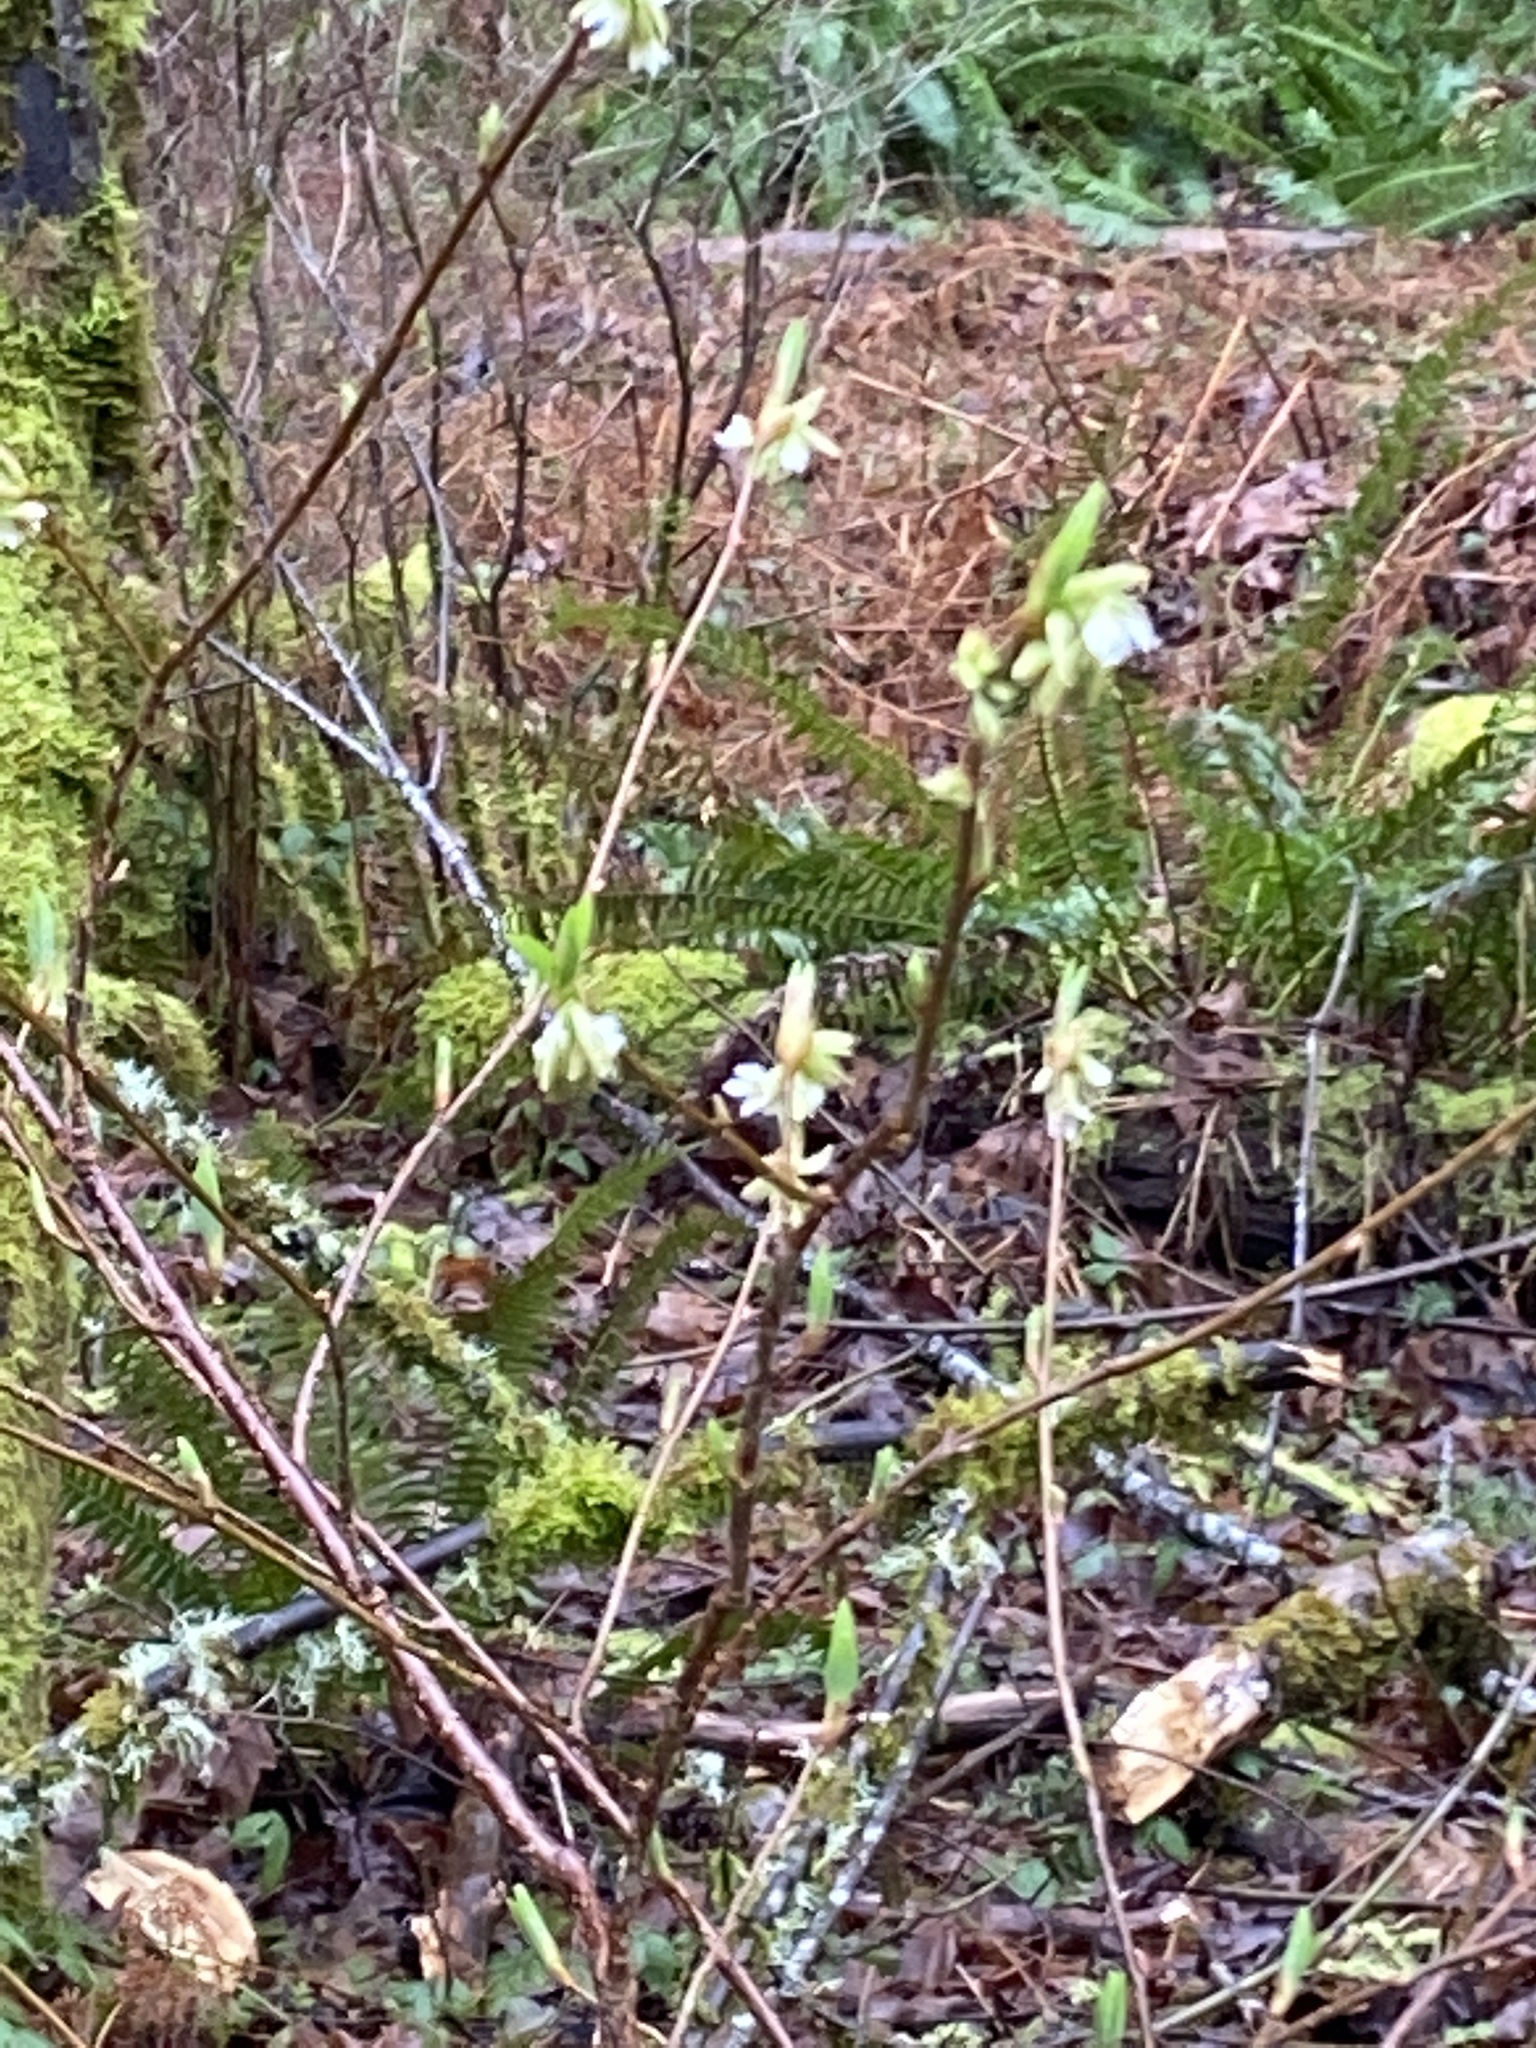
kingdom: Plantae
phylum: Tracheophyta
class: Magnoliopsida
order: Rosales
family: Rosaceae
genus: Oemleria
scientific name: Oemleria cerasiformis
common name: Osoberry
